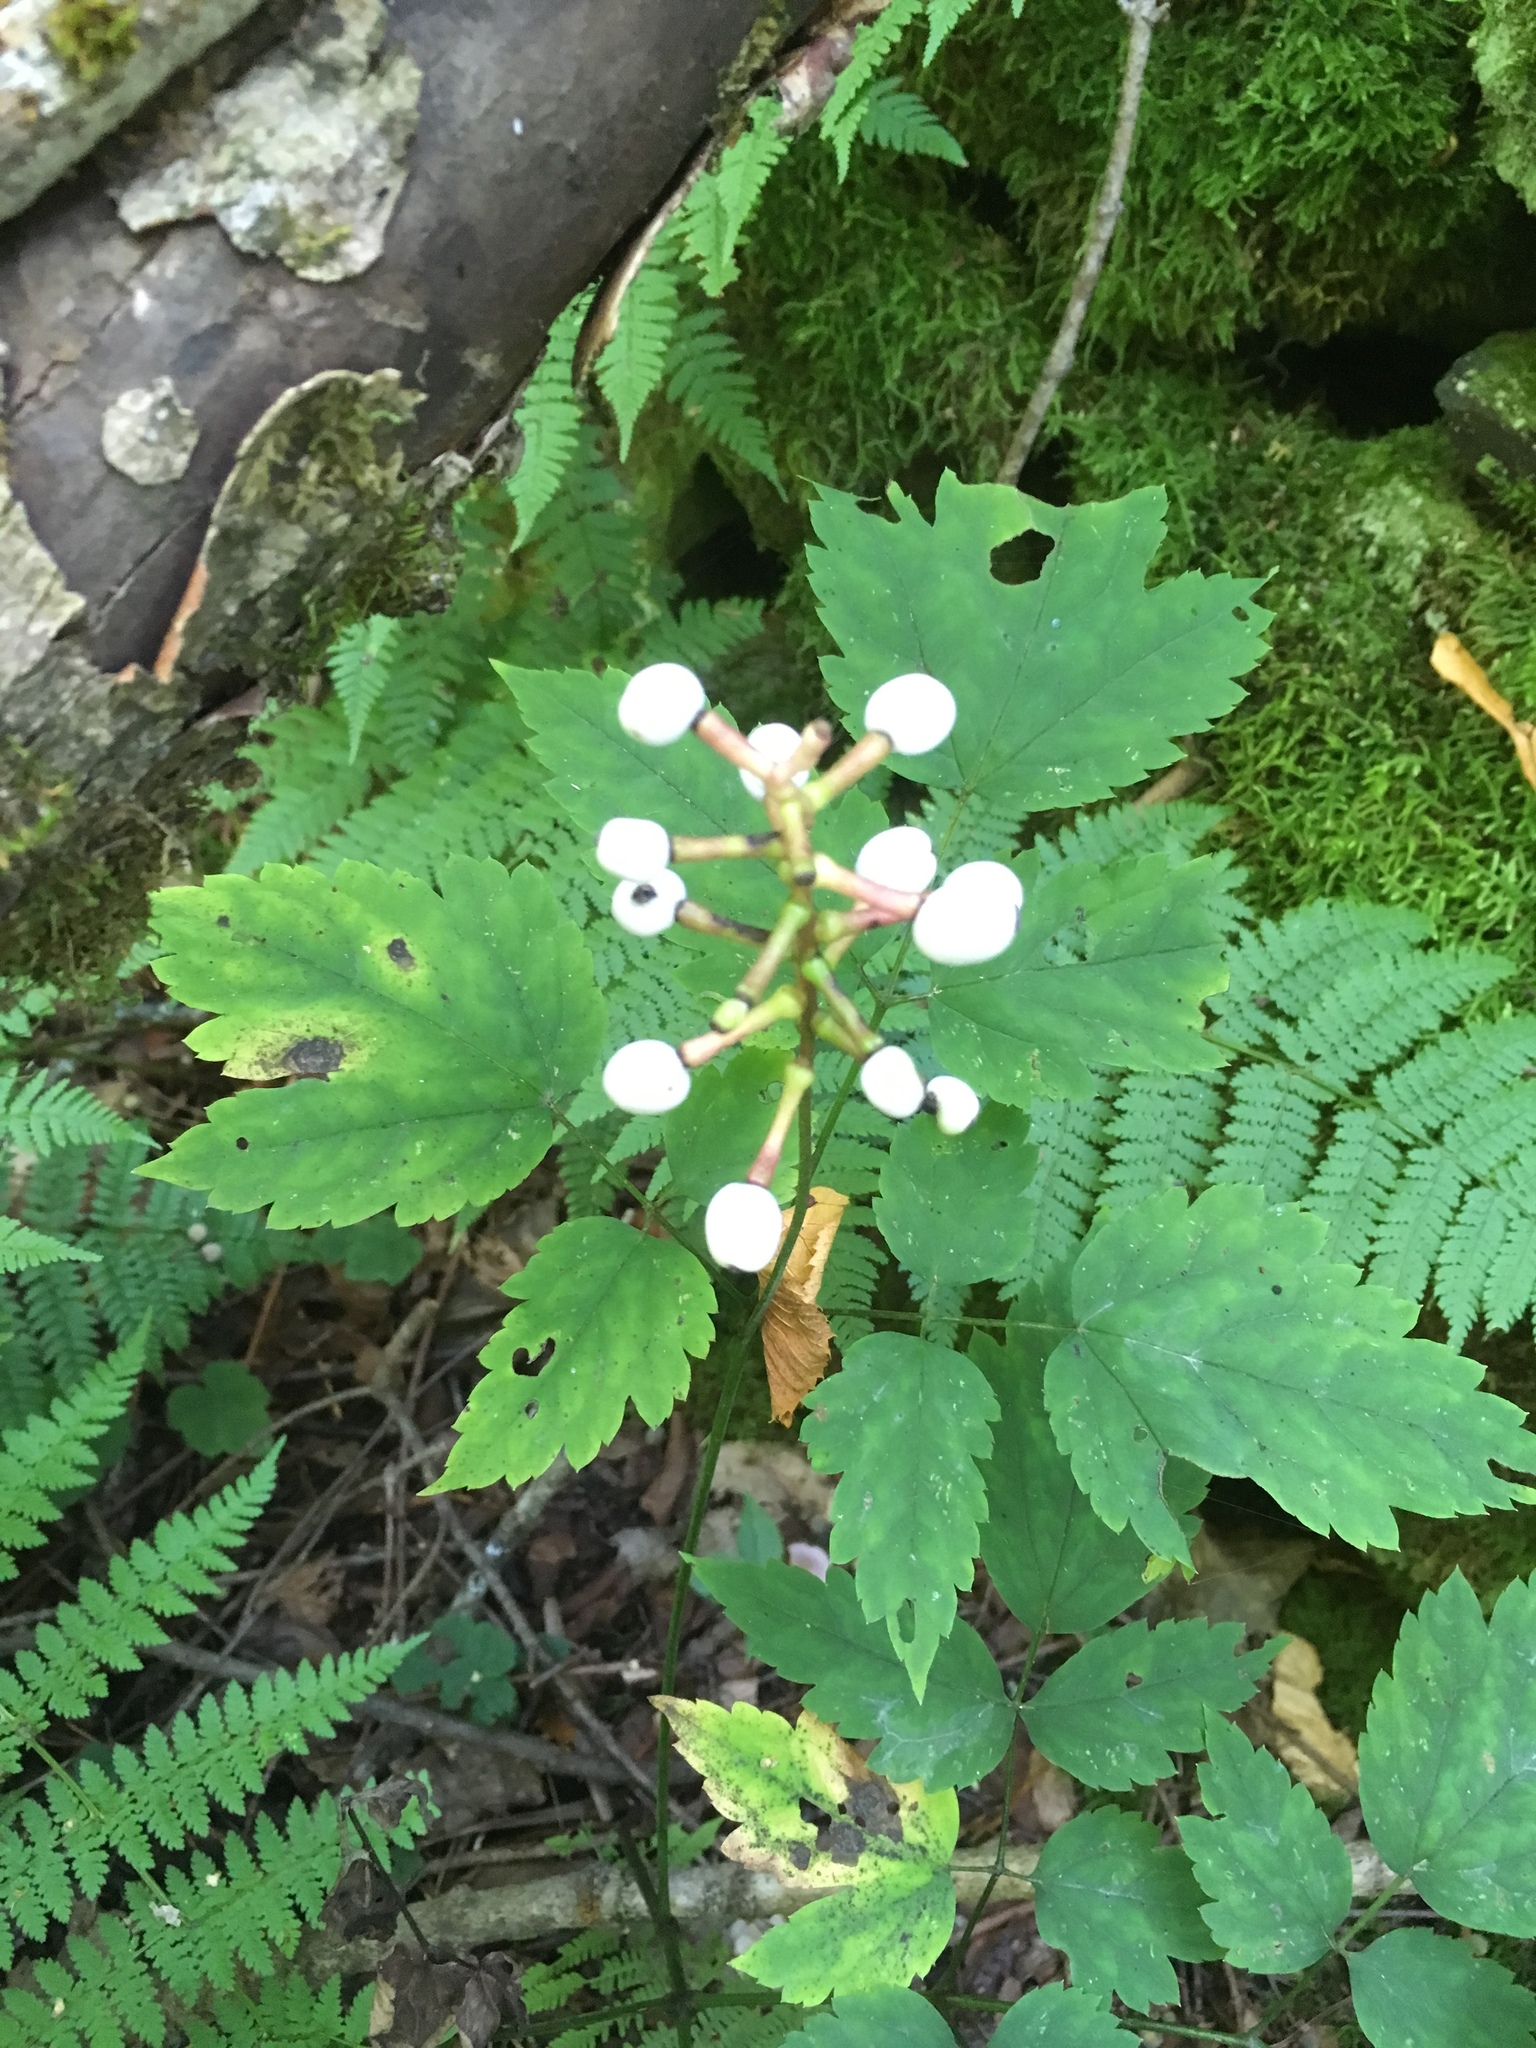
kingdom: Plantae
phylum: Tracheophyta
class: Magnoliopsida
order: Ranunculales
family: Ranunculaceae
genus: Actaea
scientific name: Actaea pachypoda
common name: Doll's-eyes
